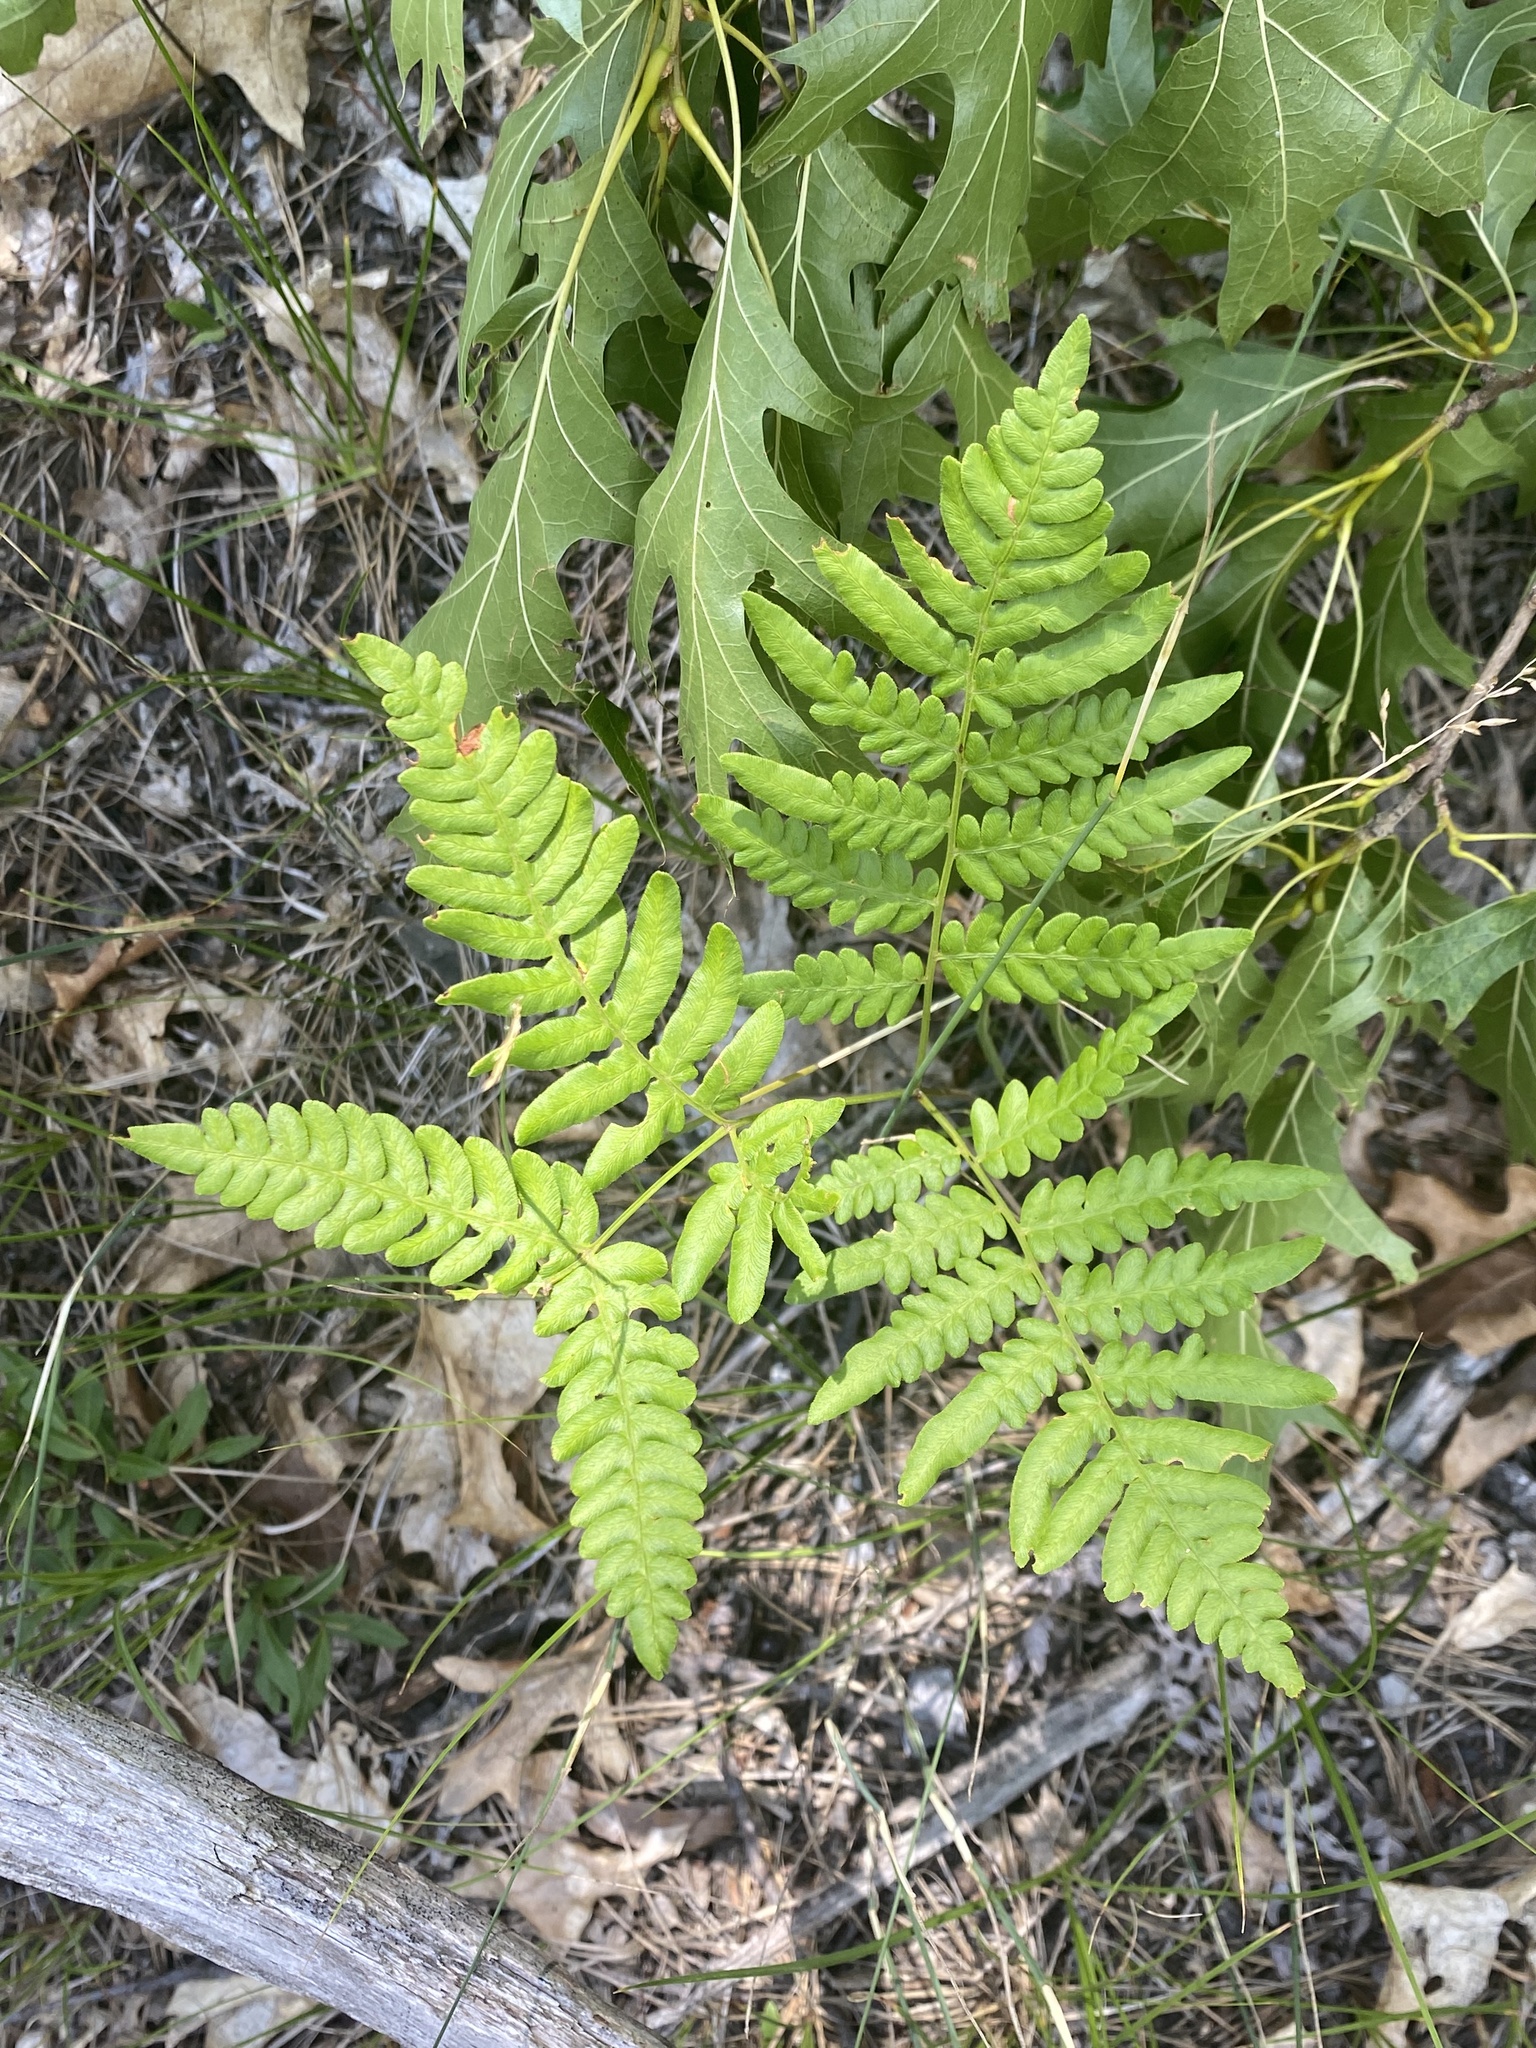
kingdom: Plantae
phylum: Tracheophyta
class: Polypodiopsida
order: Polypodiales
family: Dennstaedtiaceae
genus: Pteridium
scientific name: Pteridium aquilinum
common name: Bracken
